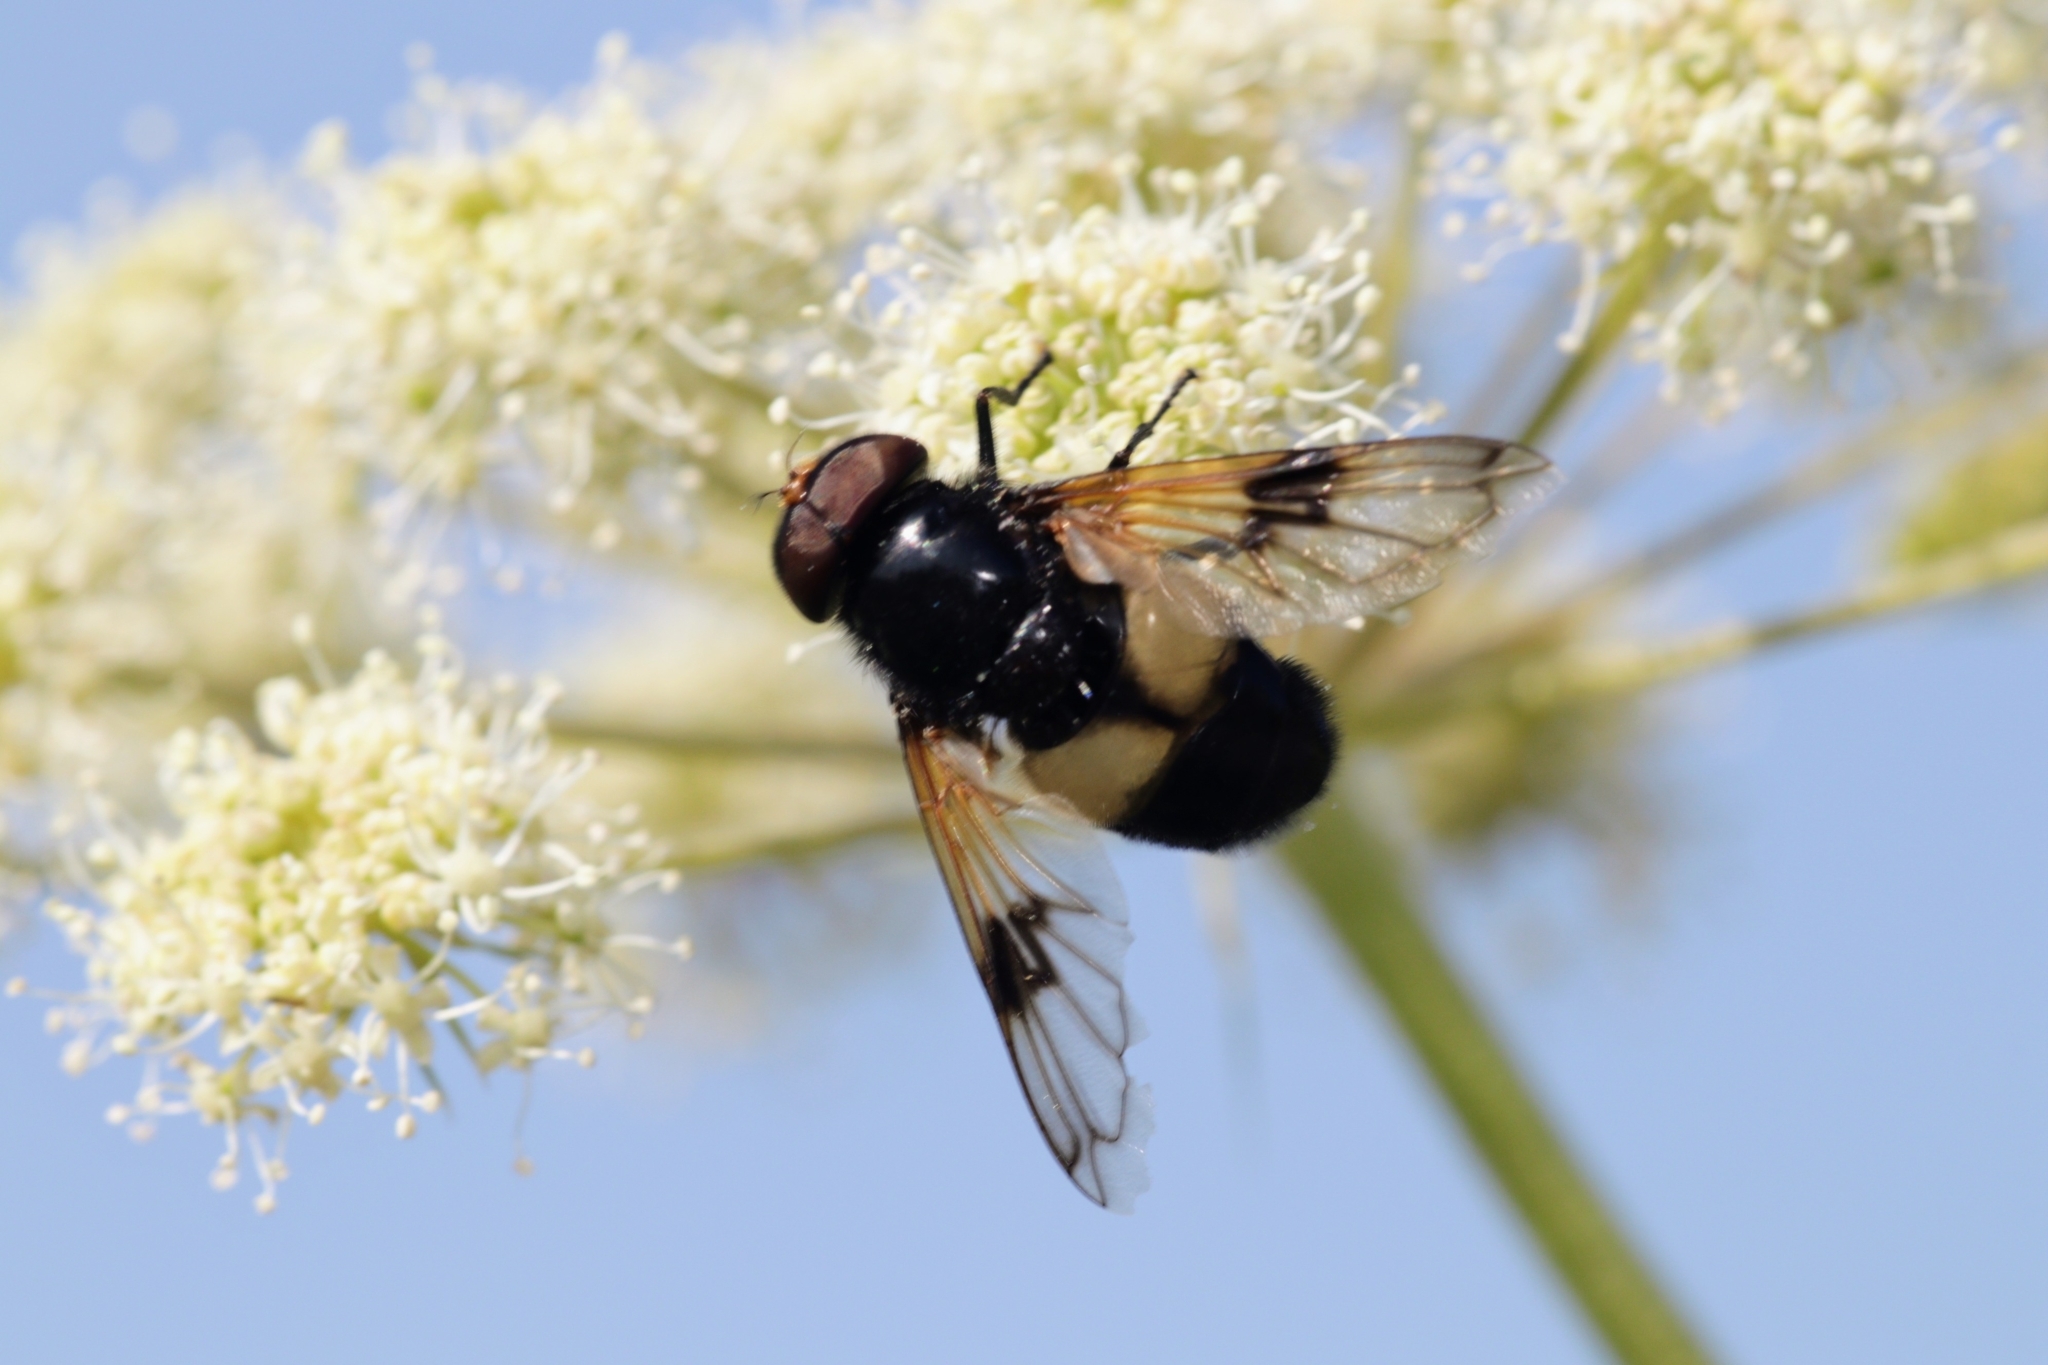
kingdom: Animalia
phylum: Arthropoda
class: Insecta
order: Diptera
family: Syrphidae
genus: Volucella
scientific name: Volucella pellucens
